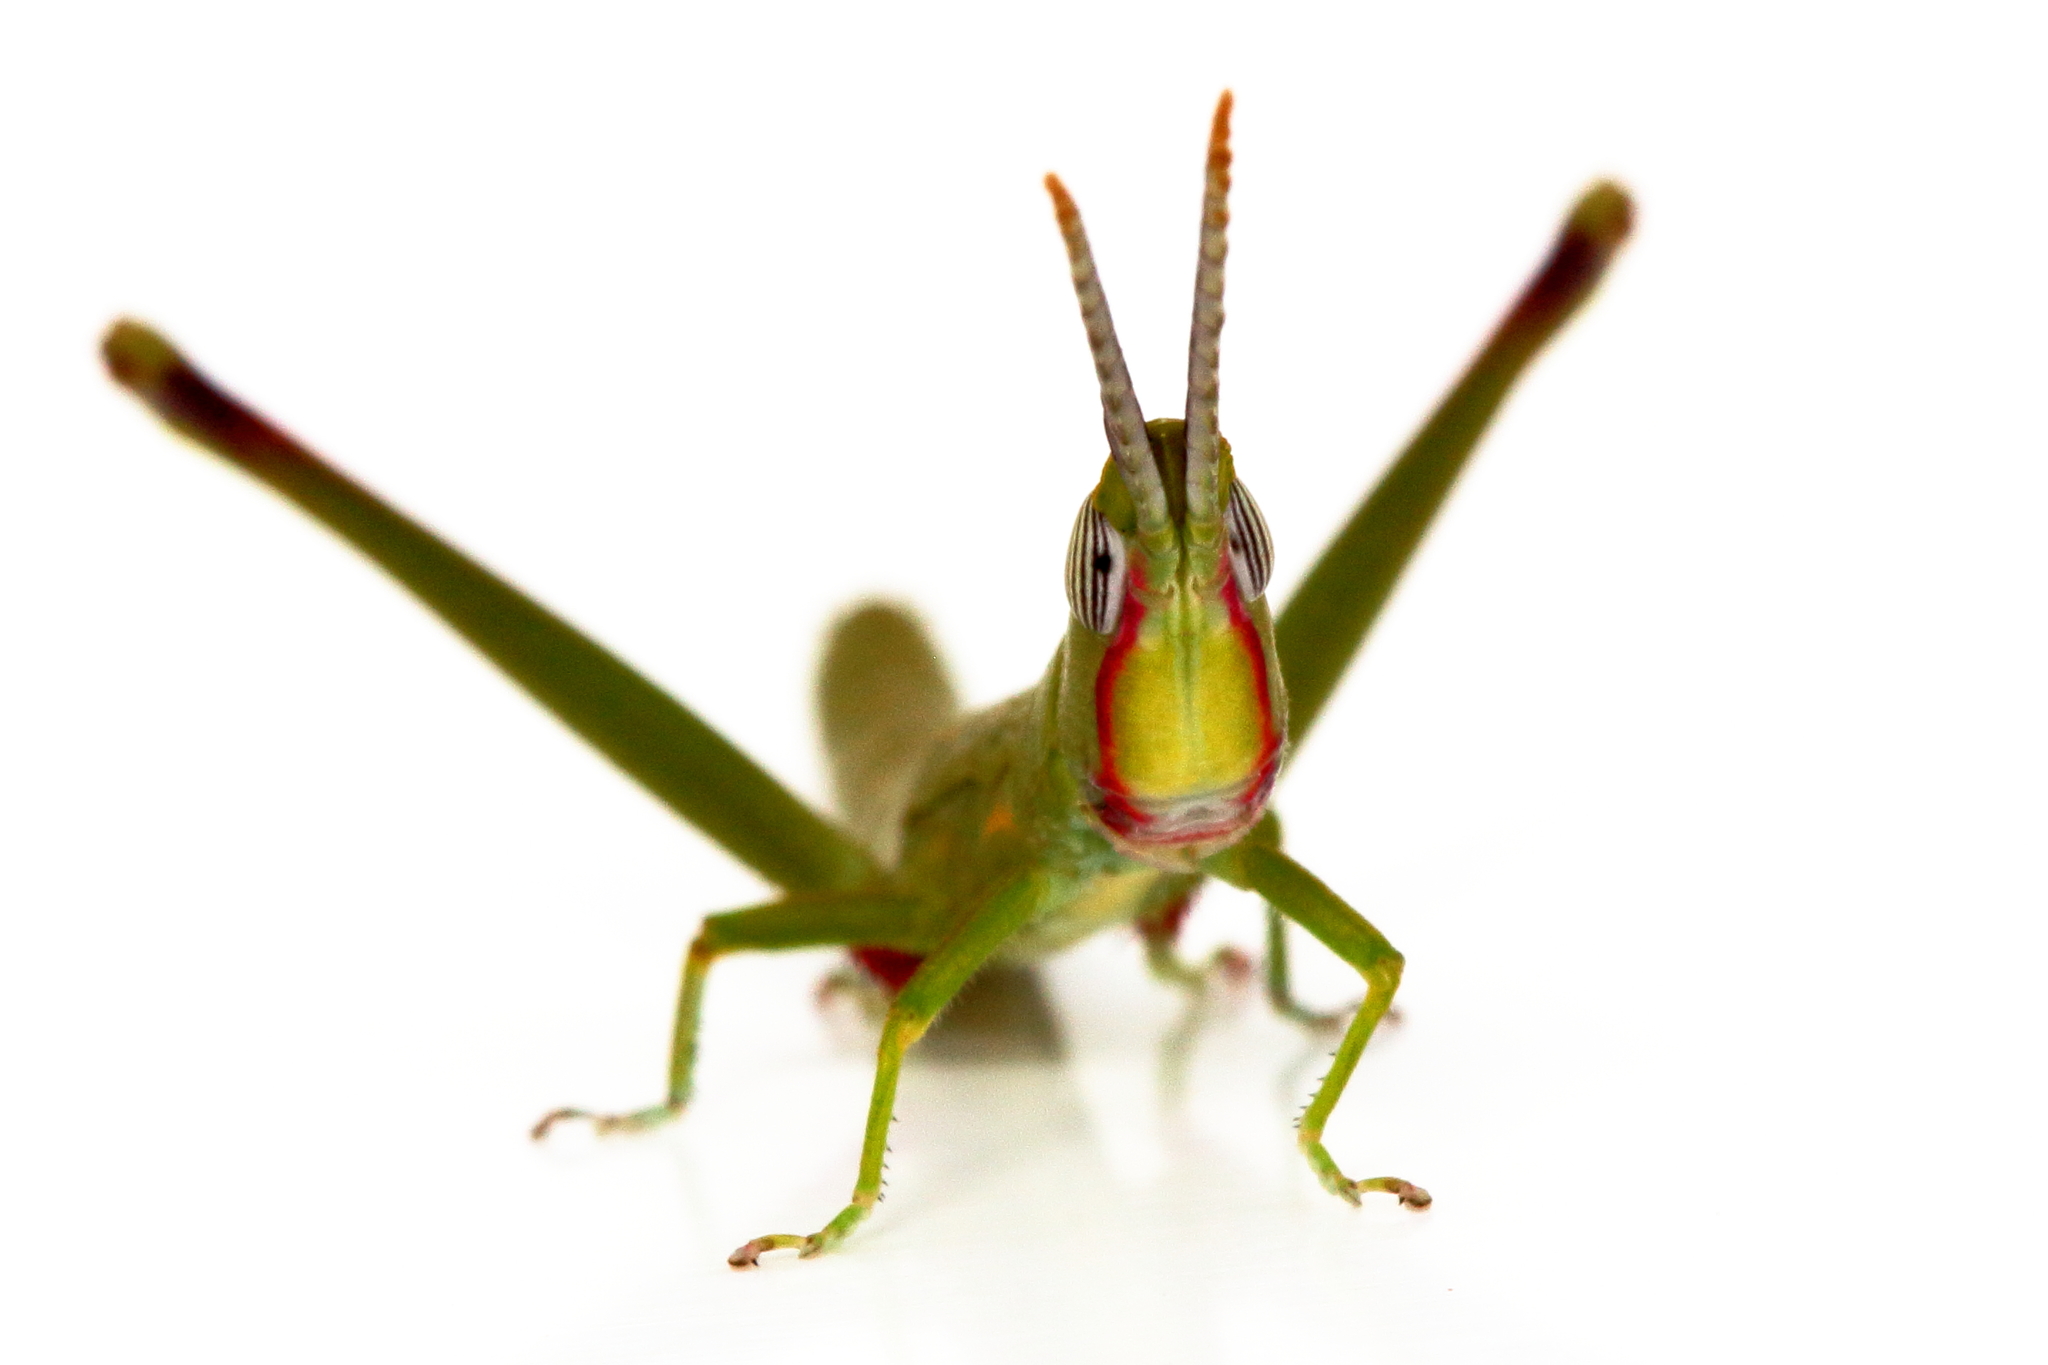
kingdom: Animalia
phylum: Arthropoda
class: Insecta
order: Orthoptera
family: Morabidae
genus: Warramaba
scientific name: Warramaba grandis
